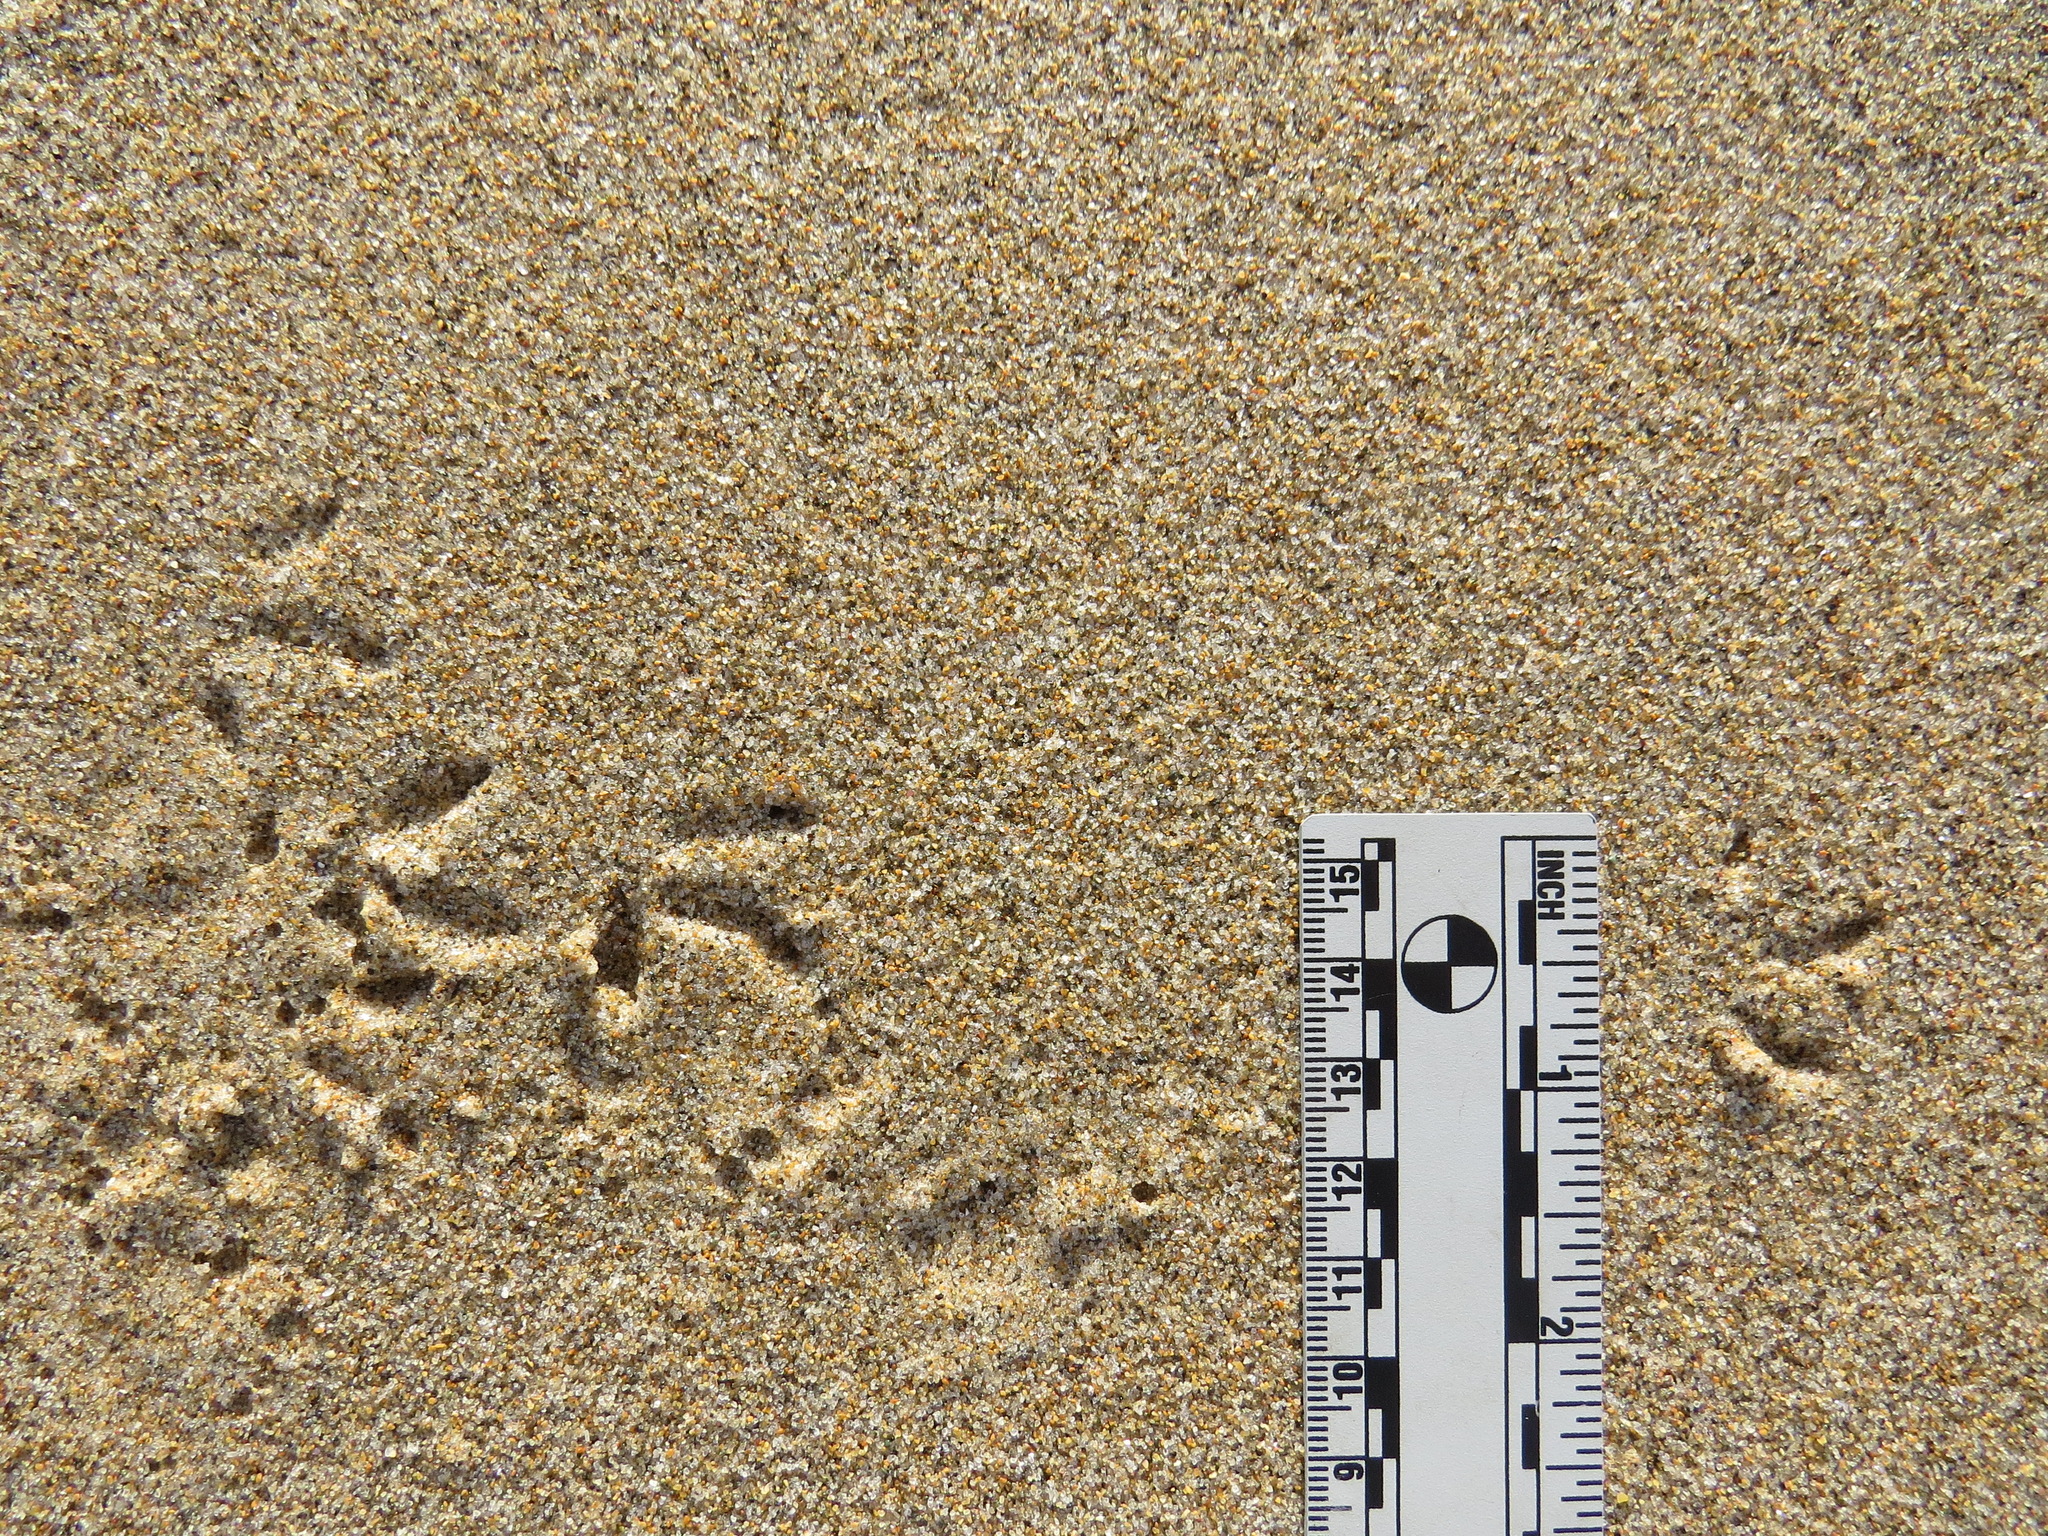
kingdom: Animalia
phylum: Chordata
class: Aves
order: Charadriiformes
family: Scolopacidae
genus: Calidris
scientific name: Calidris alba
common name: Sanderling
